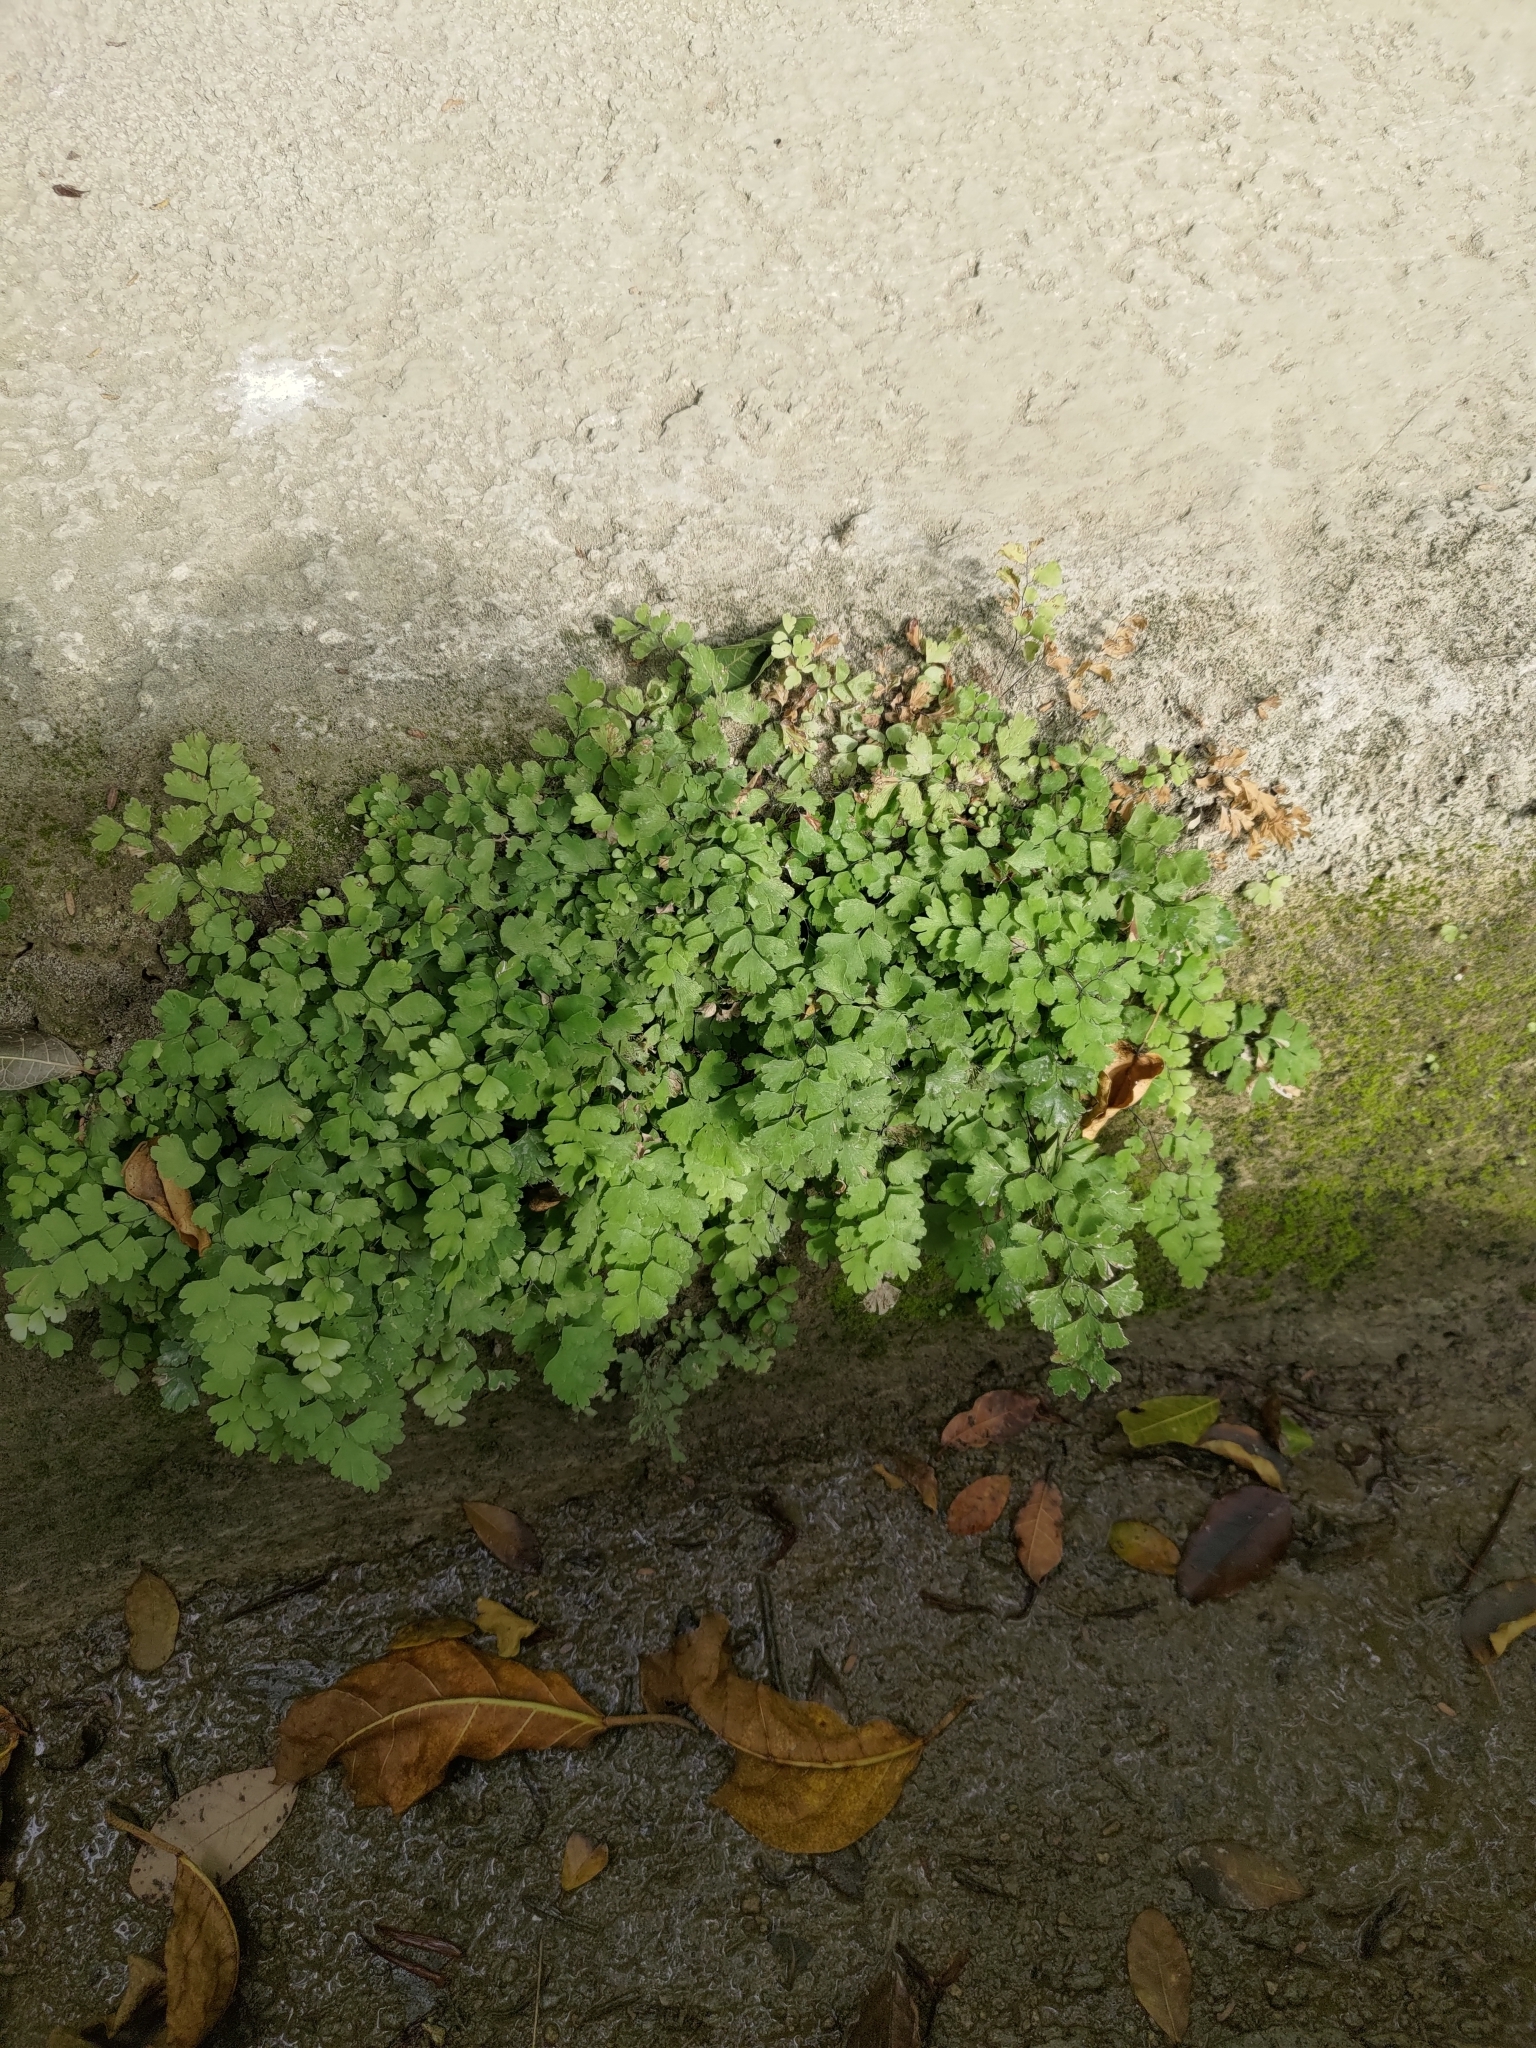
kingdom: Plantae
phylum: Tracheophyta
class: Polypodiopsida
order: Polypodiales
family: Pteridaceae
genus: Adiantum
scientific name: Adiantum capillus-veneris
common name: Maidenhair fern
